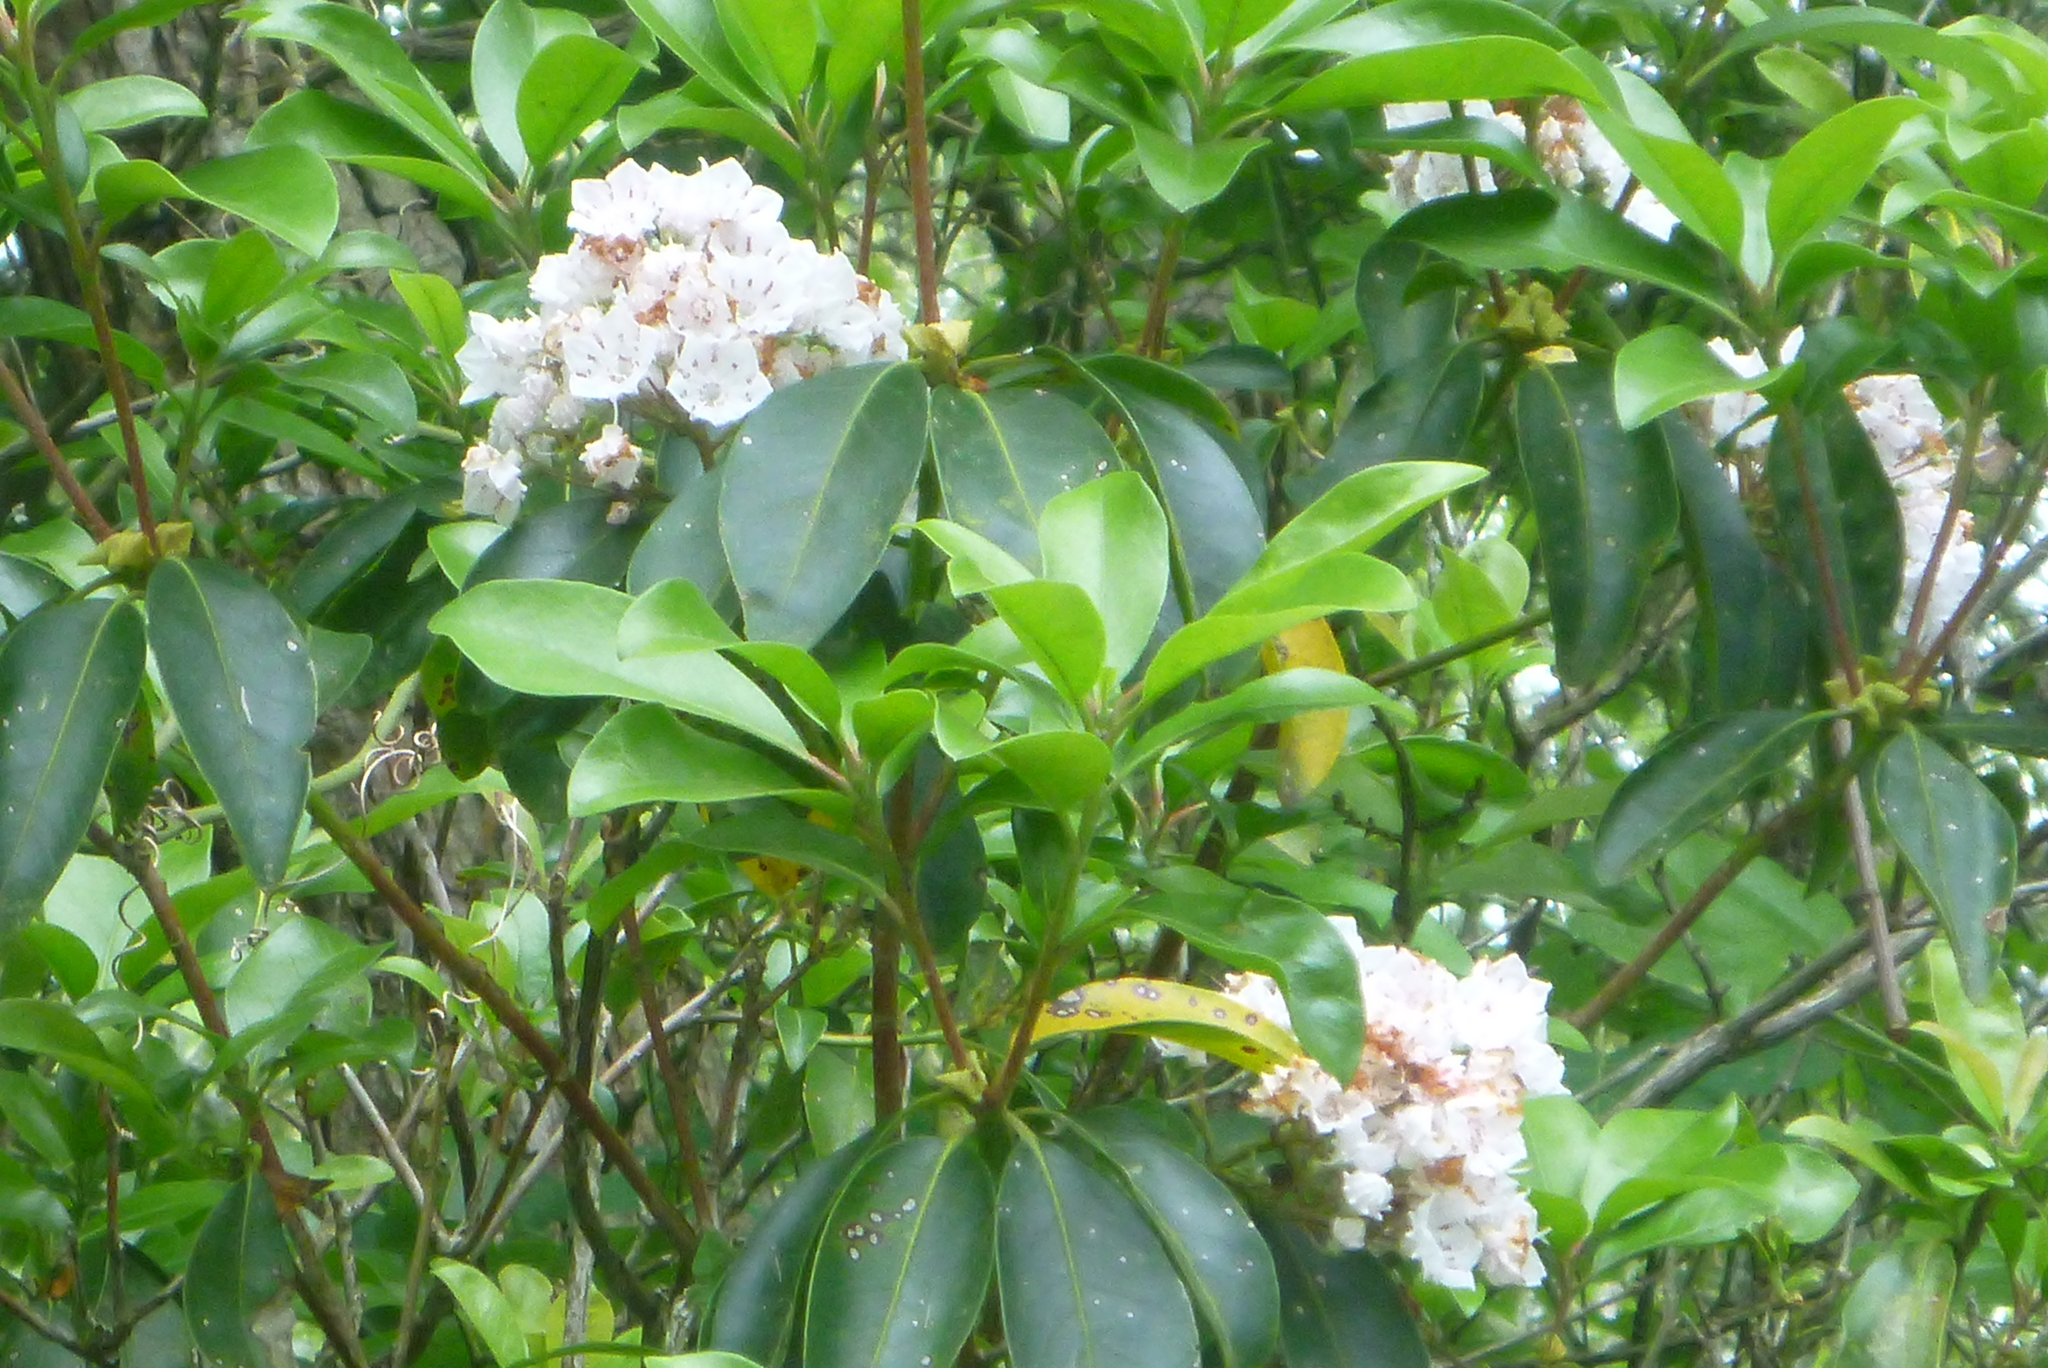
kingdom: Plantae
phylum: Tracheophyta
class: Magnoliopsida
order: Ericales
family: Ericaceae
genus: Kalmia
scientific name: Kalmia latifolia
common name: Mountain-laurel
